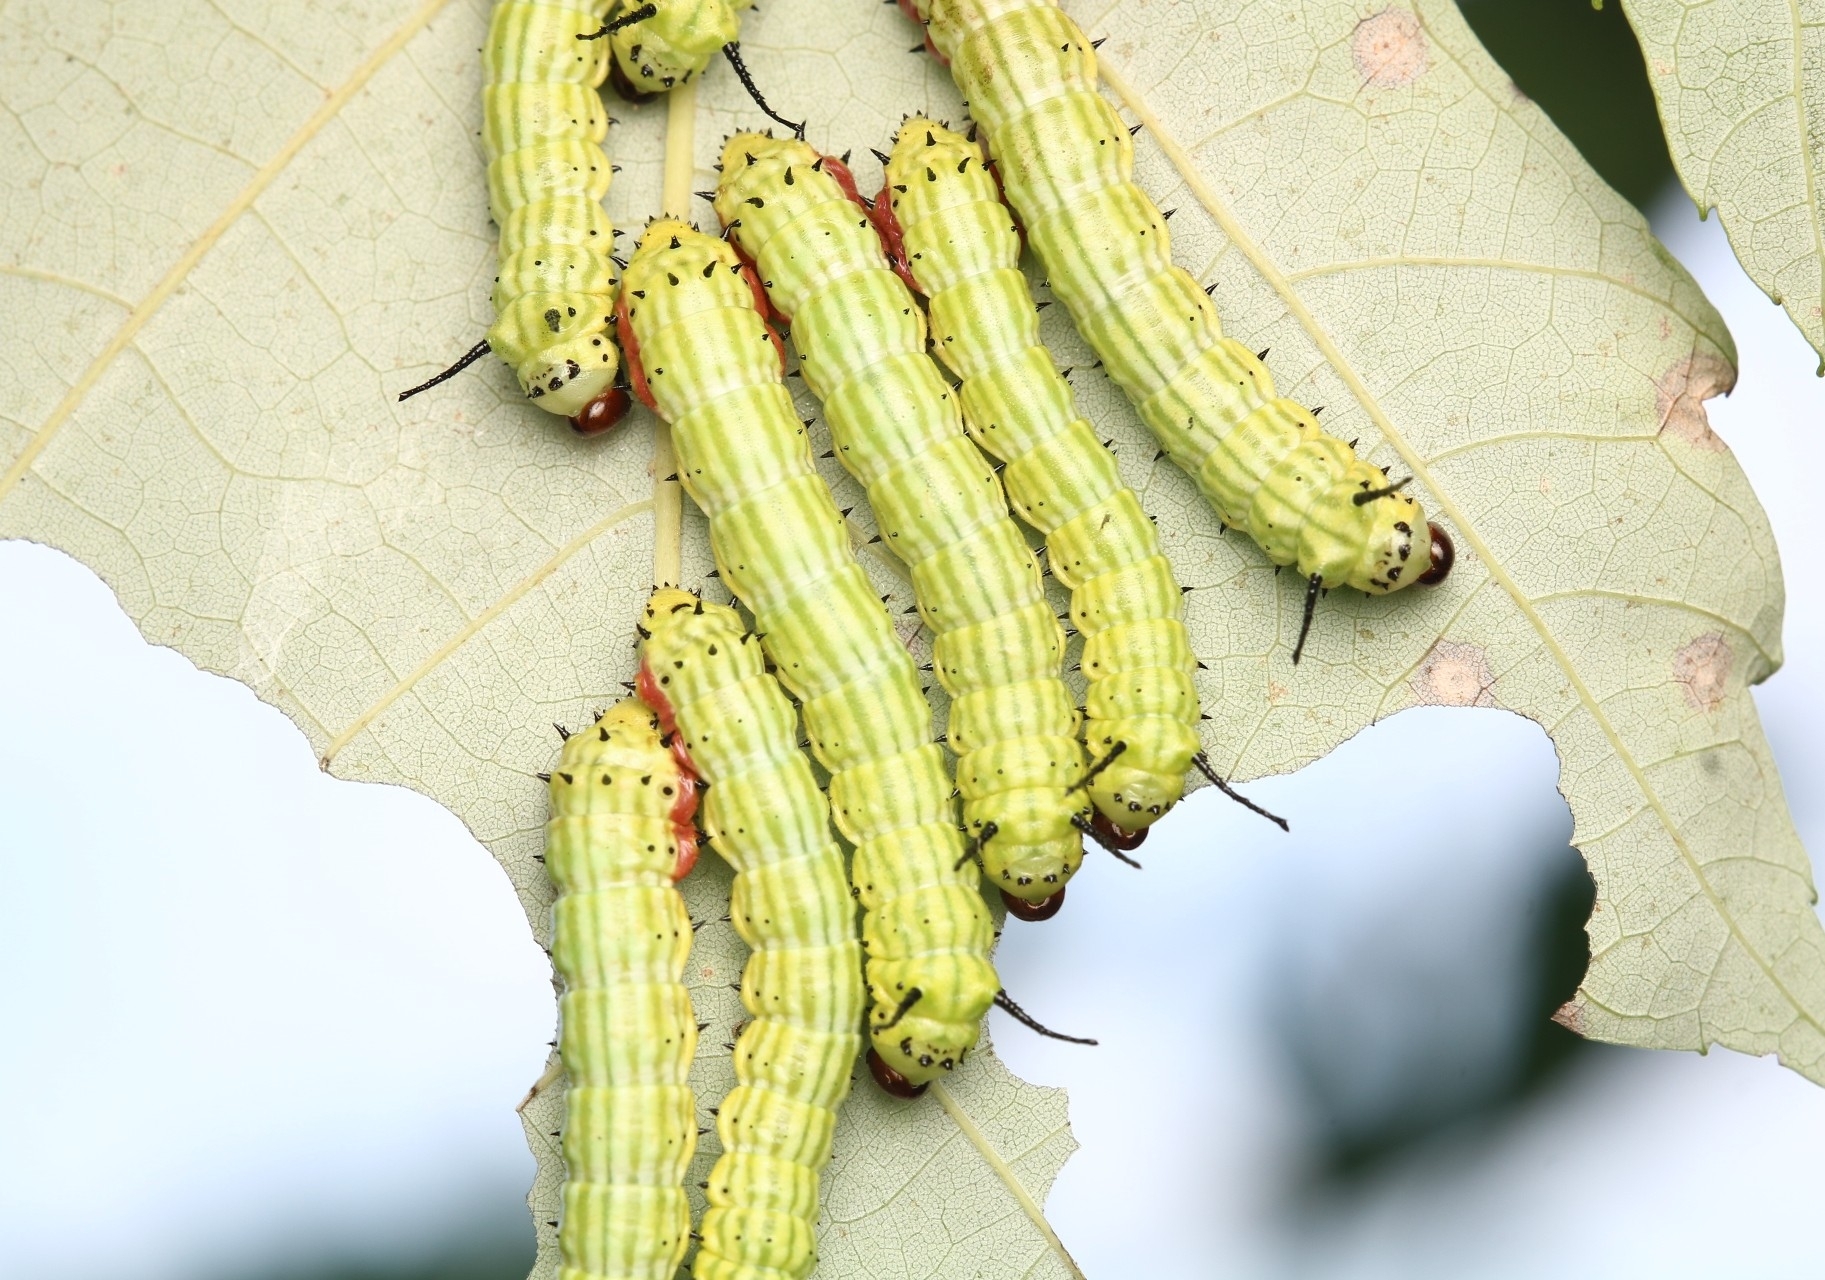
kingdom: Animalia
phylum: Arthropoda
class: Insecta
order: Lepidoptera
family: Saturniidae
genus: Dryocampa
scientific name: Dryocampa rubicunda
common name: Rosy maple moth
